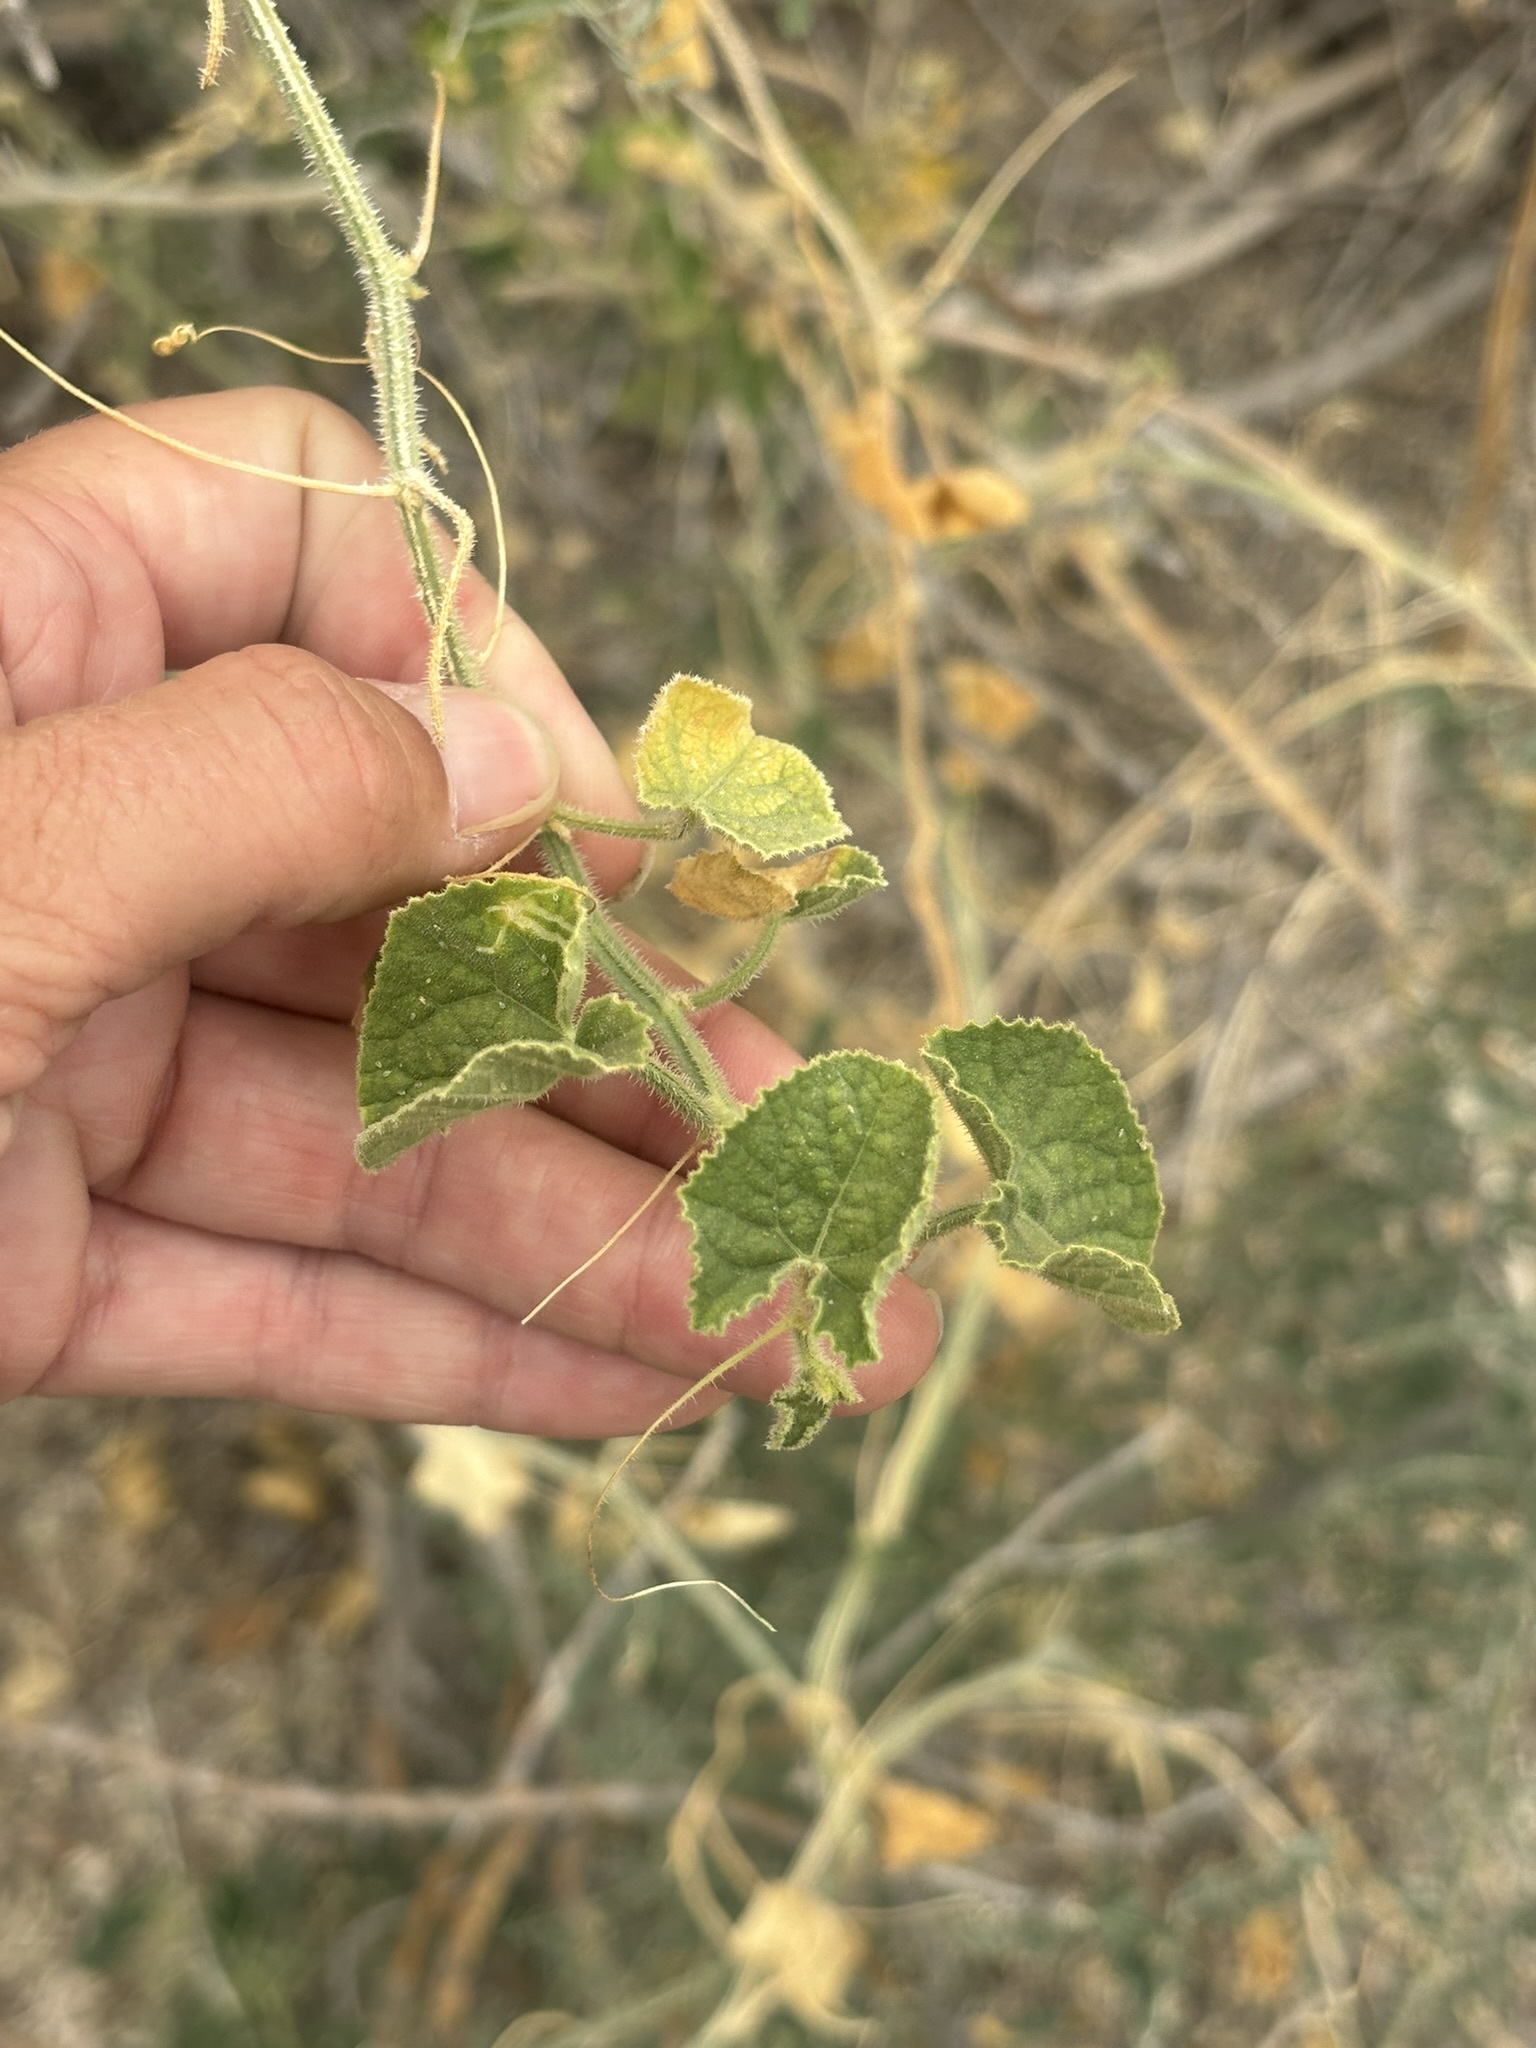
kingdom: Plantae
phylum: Tracheophyta
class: Magnoliopsida
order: Cucurbitales
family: Cucurbitaceae
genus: Cucumis
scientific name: Cucumis dipsaceus
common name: Hedgehog gourd
